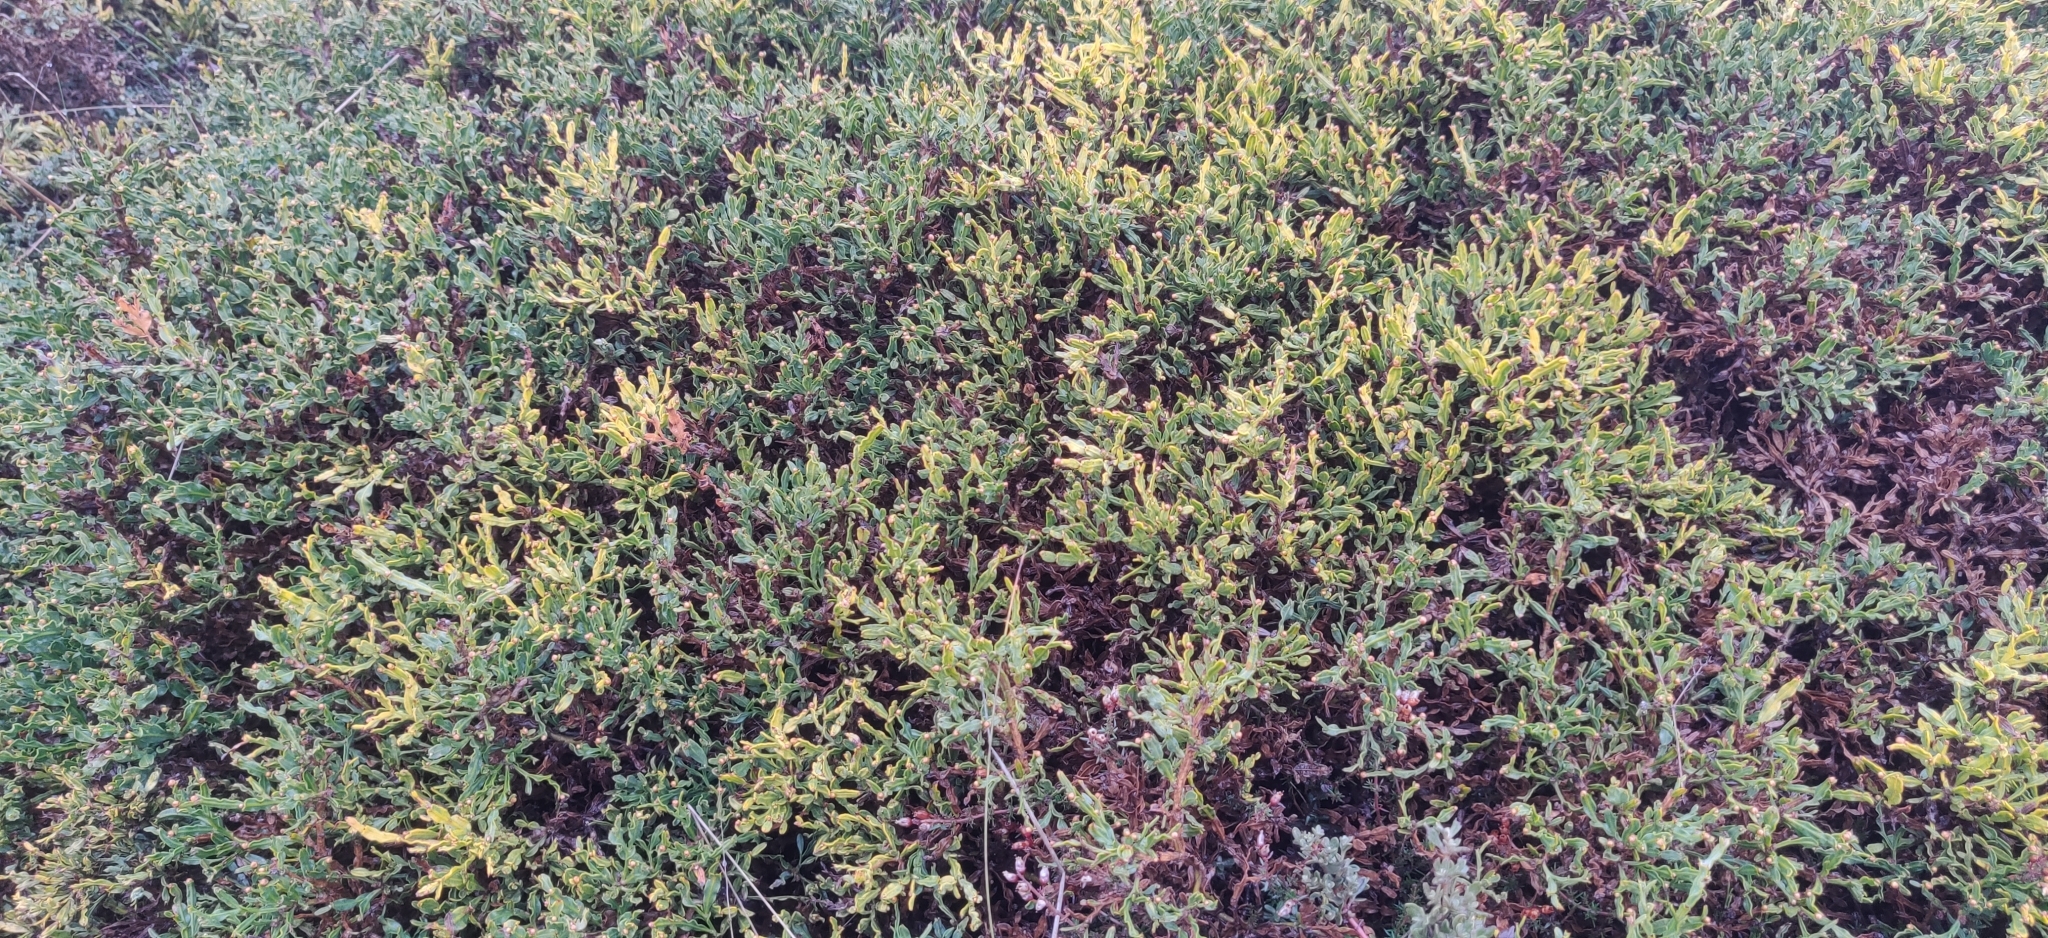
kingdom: Plantae
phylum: Tracheophyta
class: Magnoliopsida
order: Fabales
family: Fabaceae
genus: Genista
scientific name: Genista tridentata
